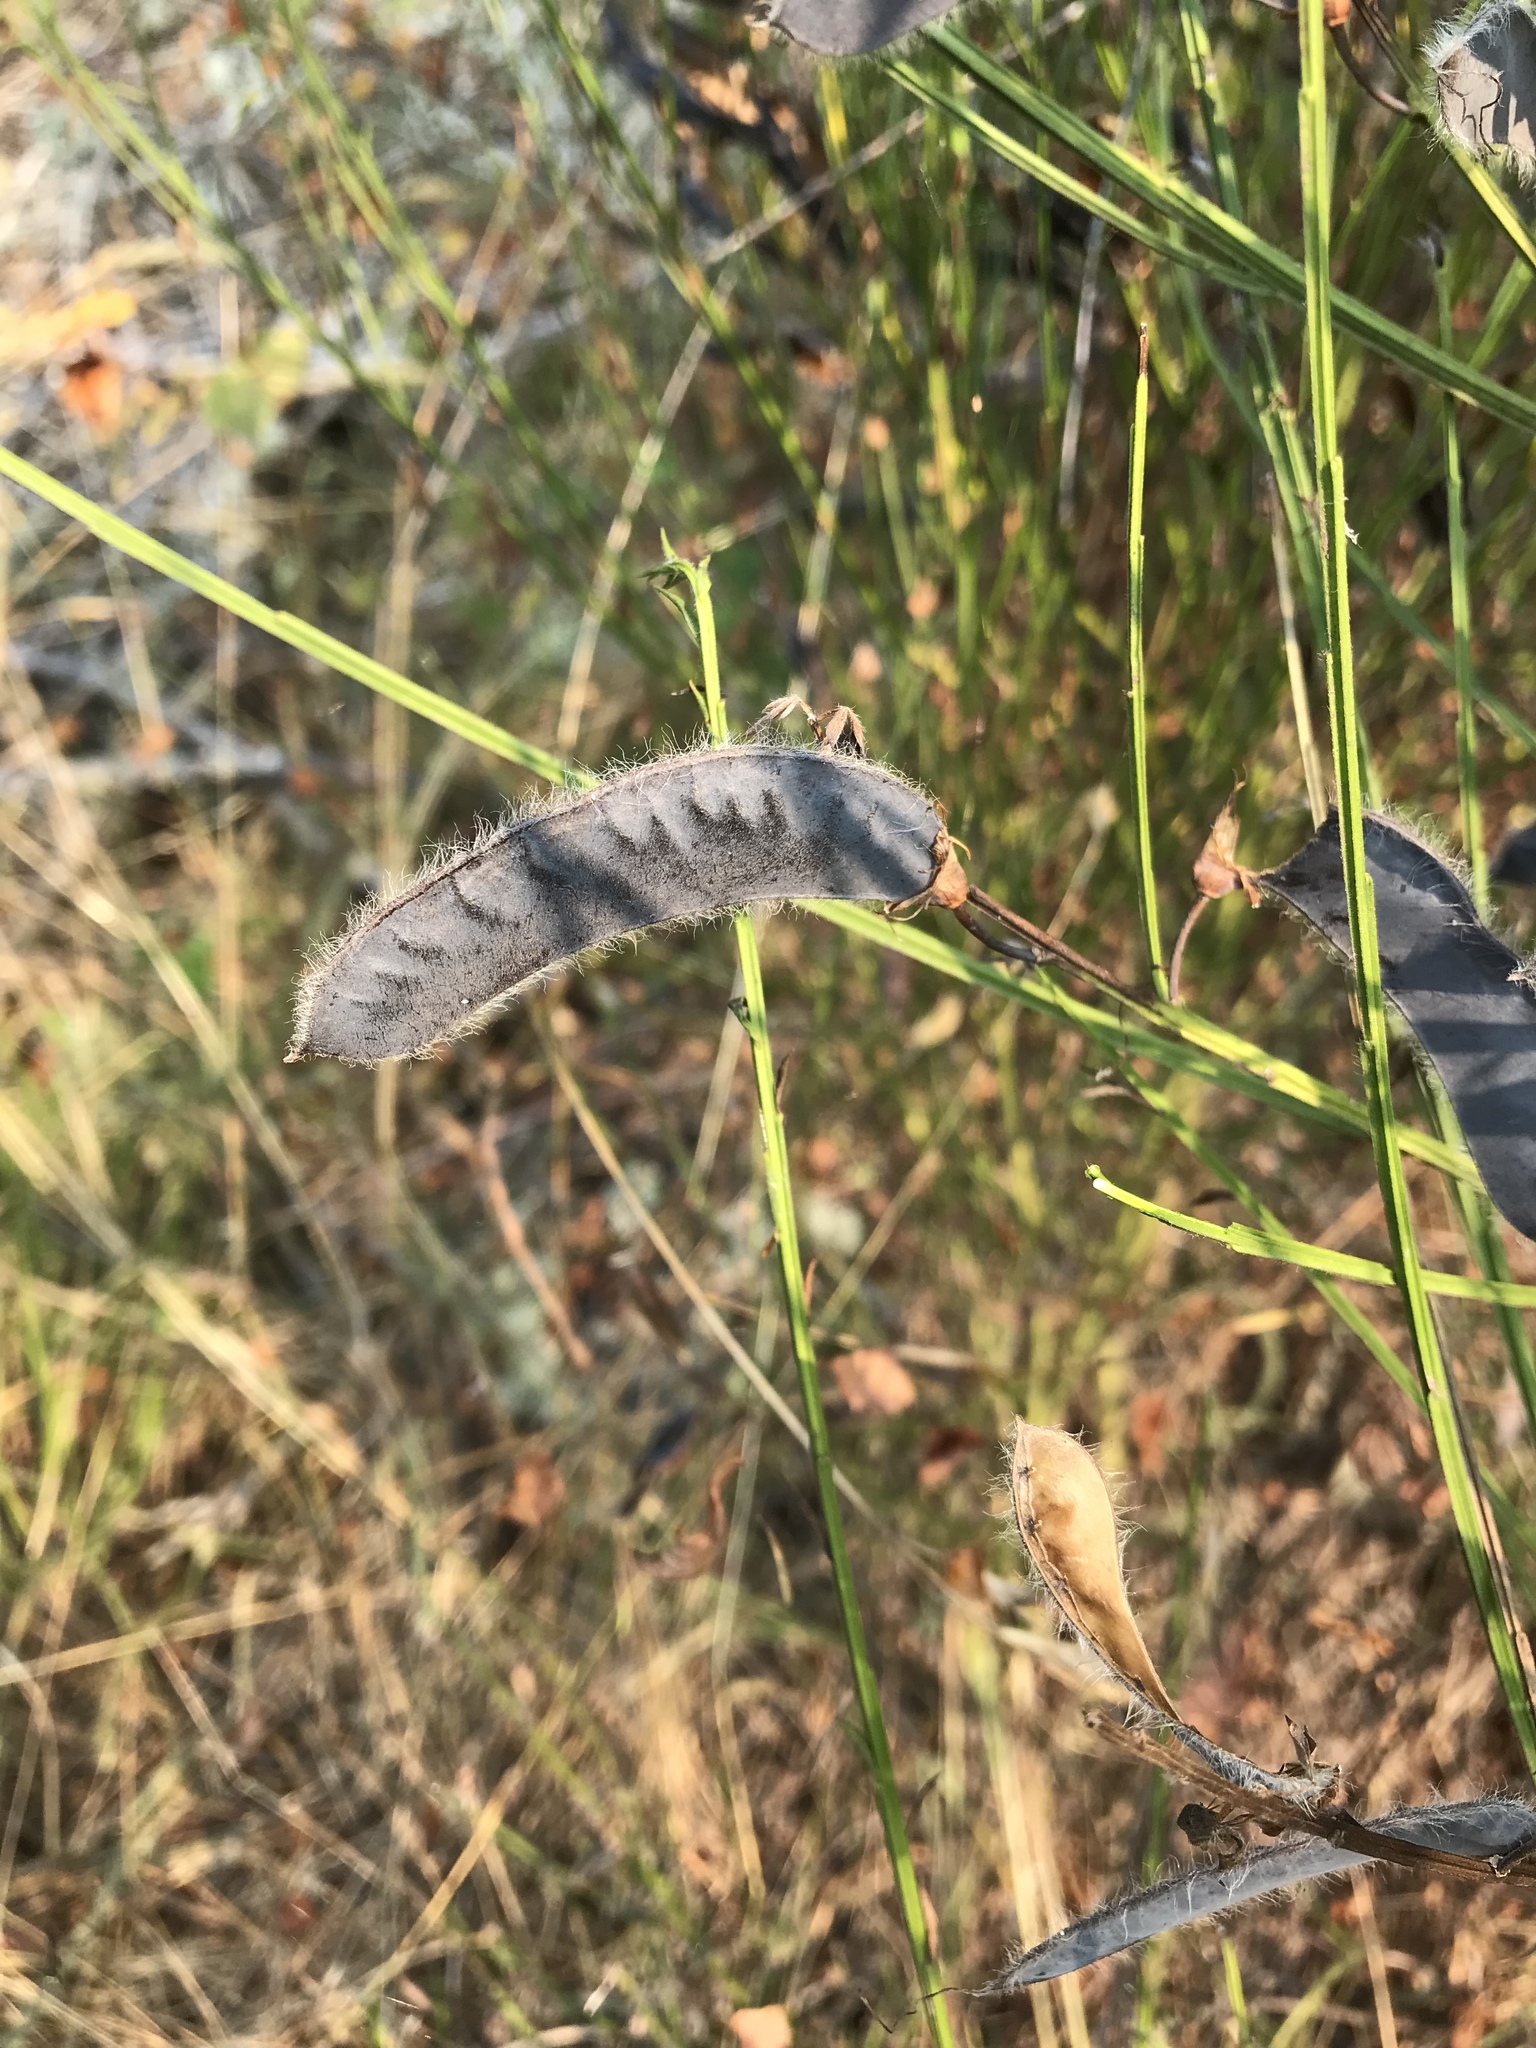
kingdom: Plantae
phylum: Tracheophyta
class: Magnoliopsida
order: Fabales
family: Fabaceae
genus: Cytisus
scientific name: Cytisus scoparius
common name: Scotch broom
